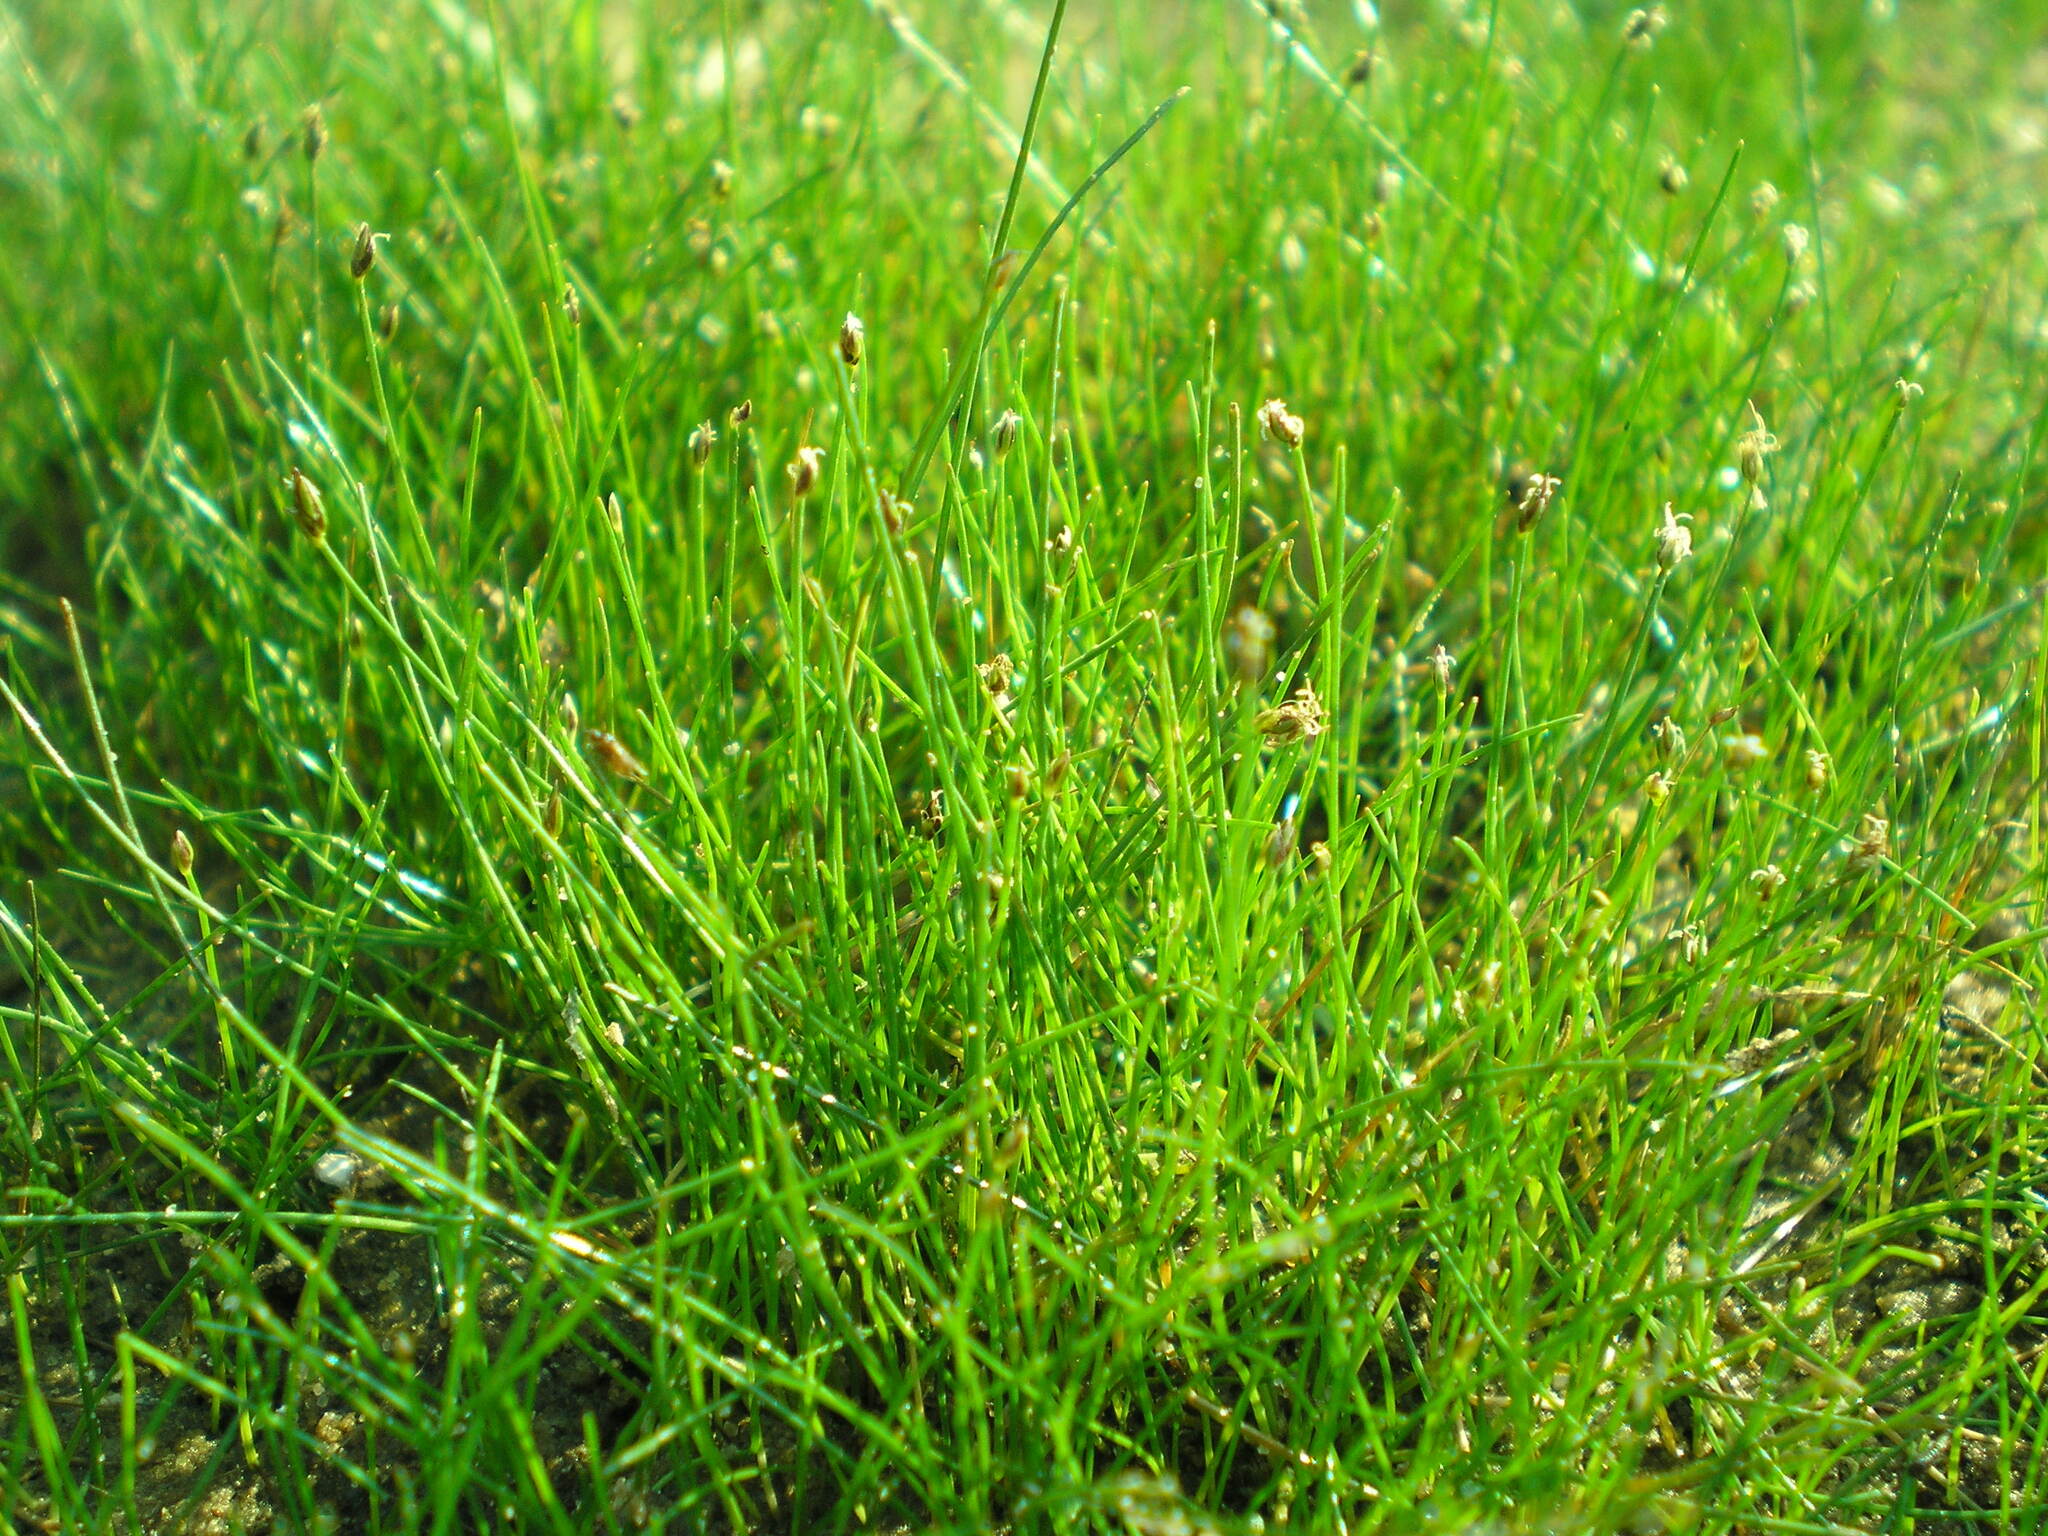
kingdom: Plantae
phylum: Tracheophyta
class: Liliopsida
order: Poales
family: Cyperaceae
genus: Eleocharis
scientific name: Eleocharis acicularis
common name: Needle spike-rush
